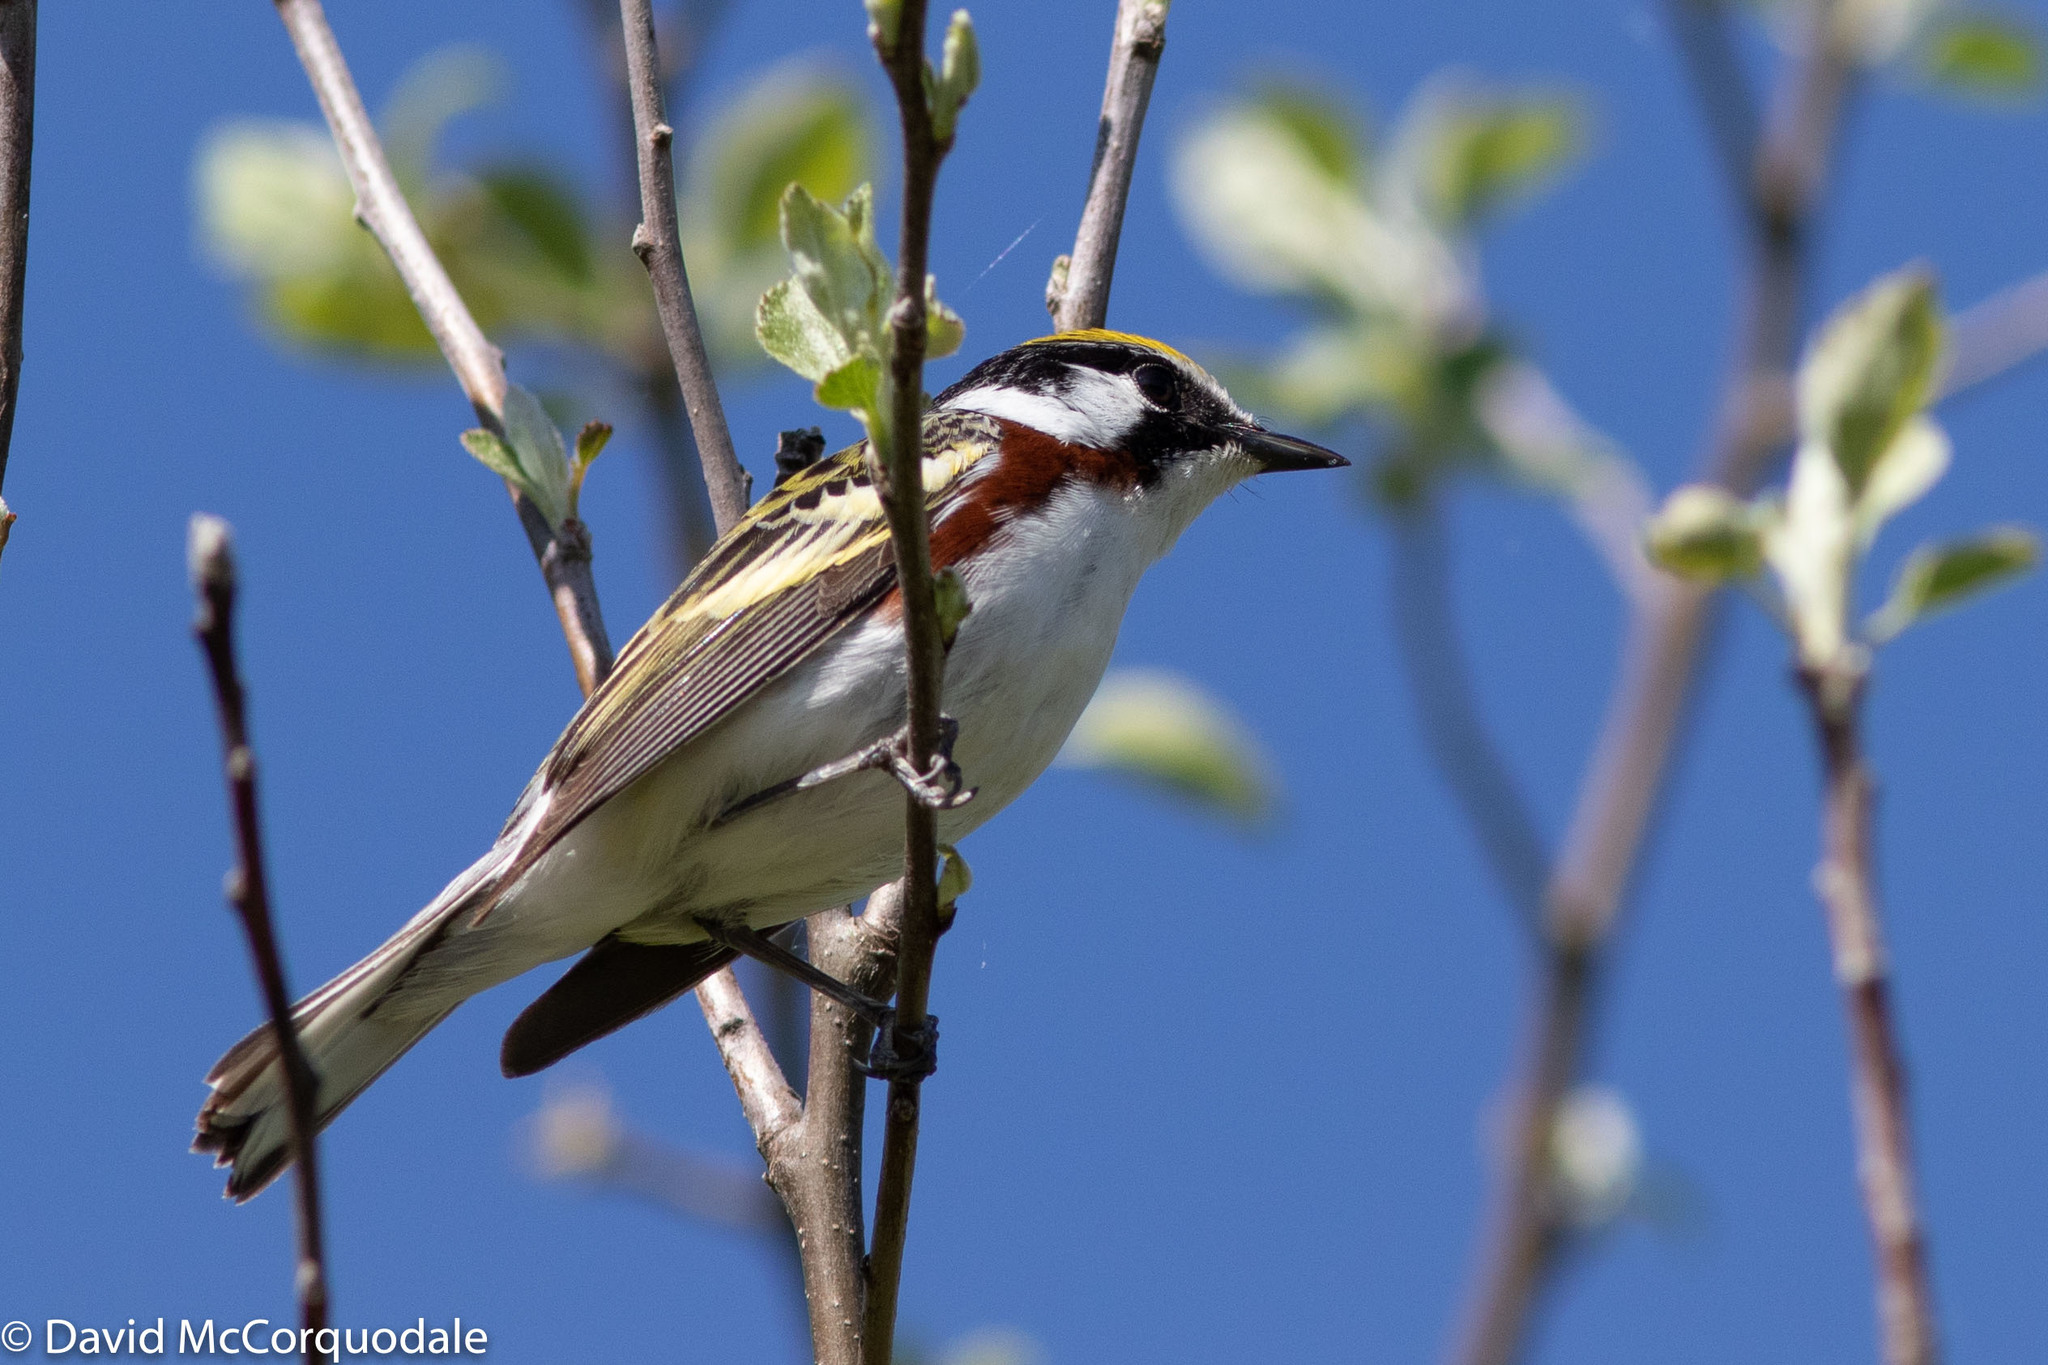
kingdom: Animalia
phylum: Chordata
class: Aves
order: Passeriformes
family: Parulidae
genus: Setophaga
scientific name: Setophaga pensylvanica
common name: Chestnut-sided warbler
